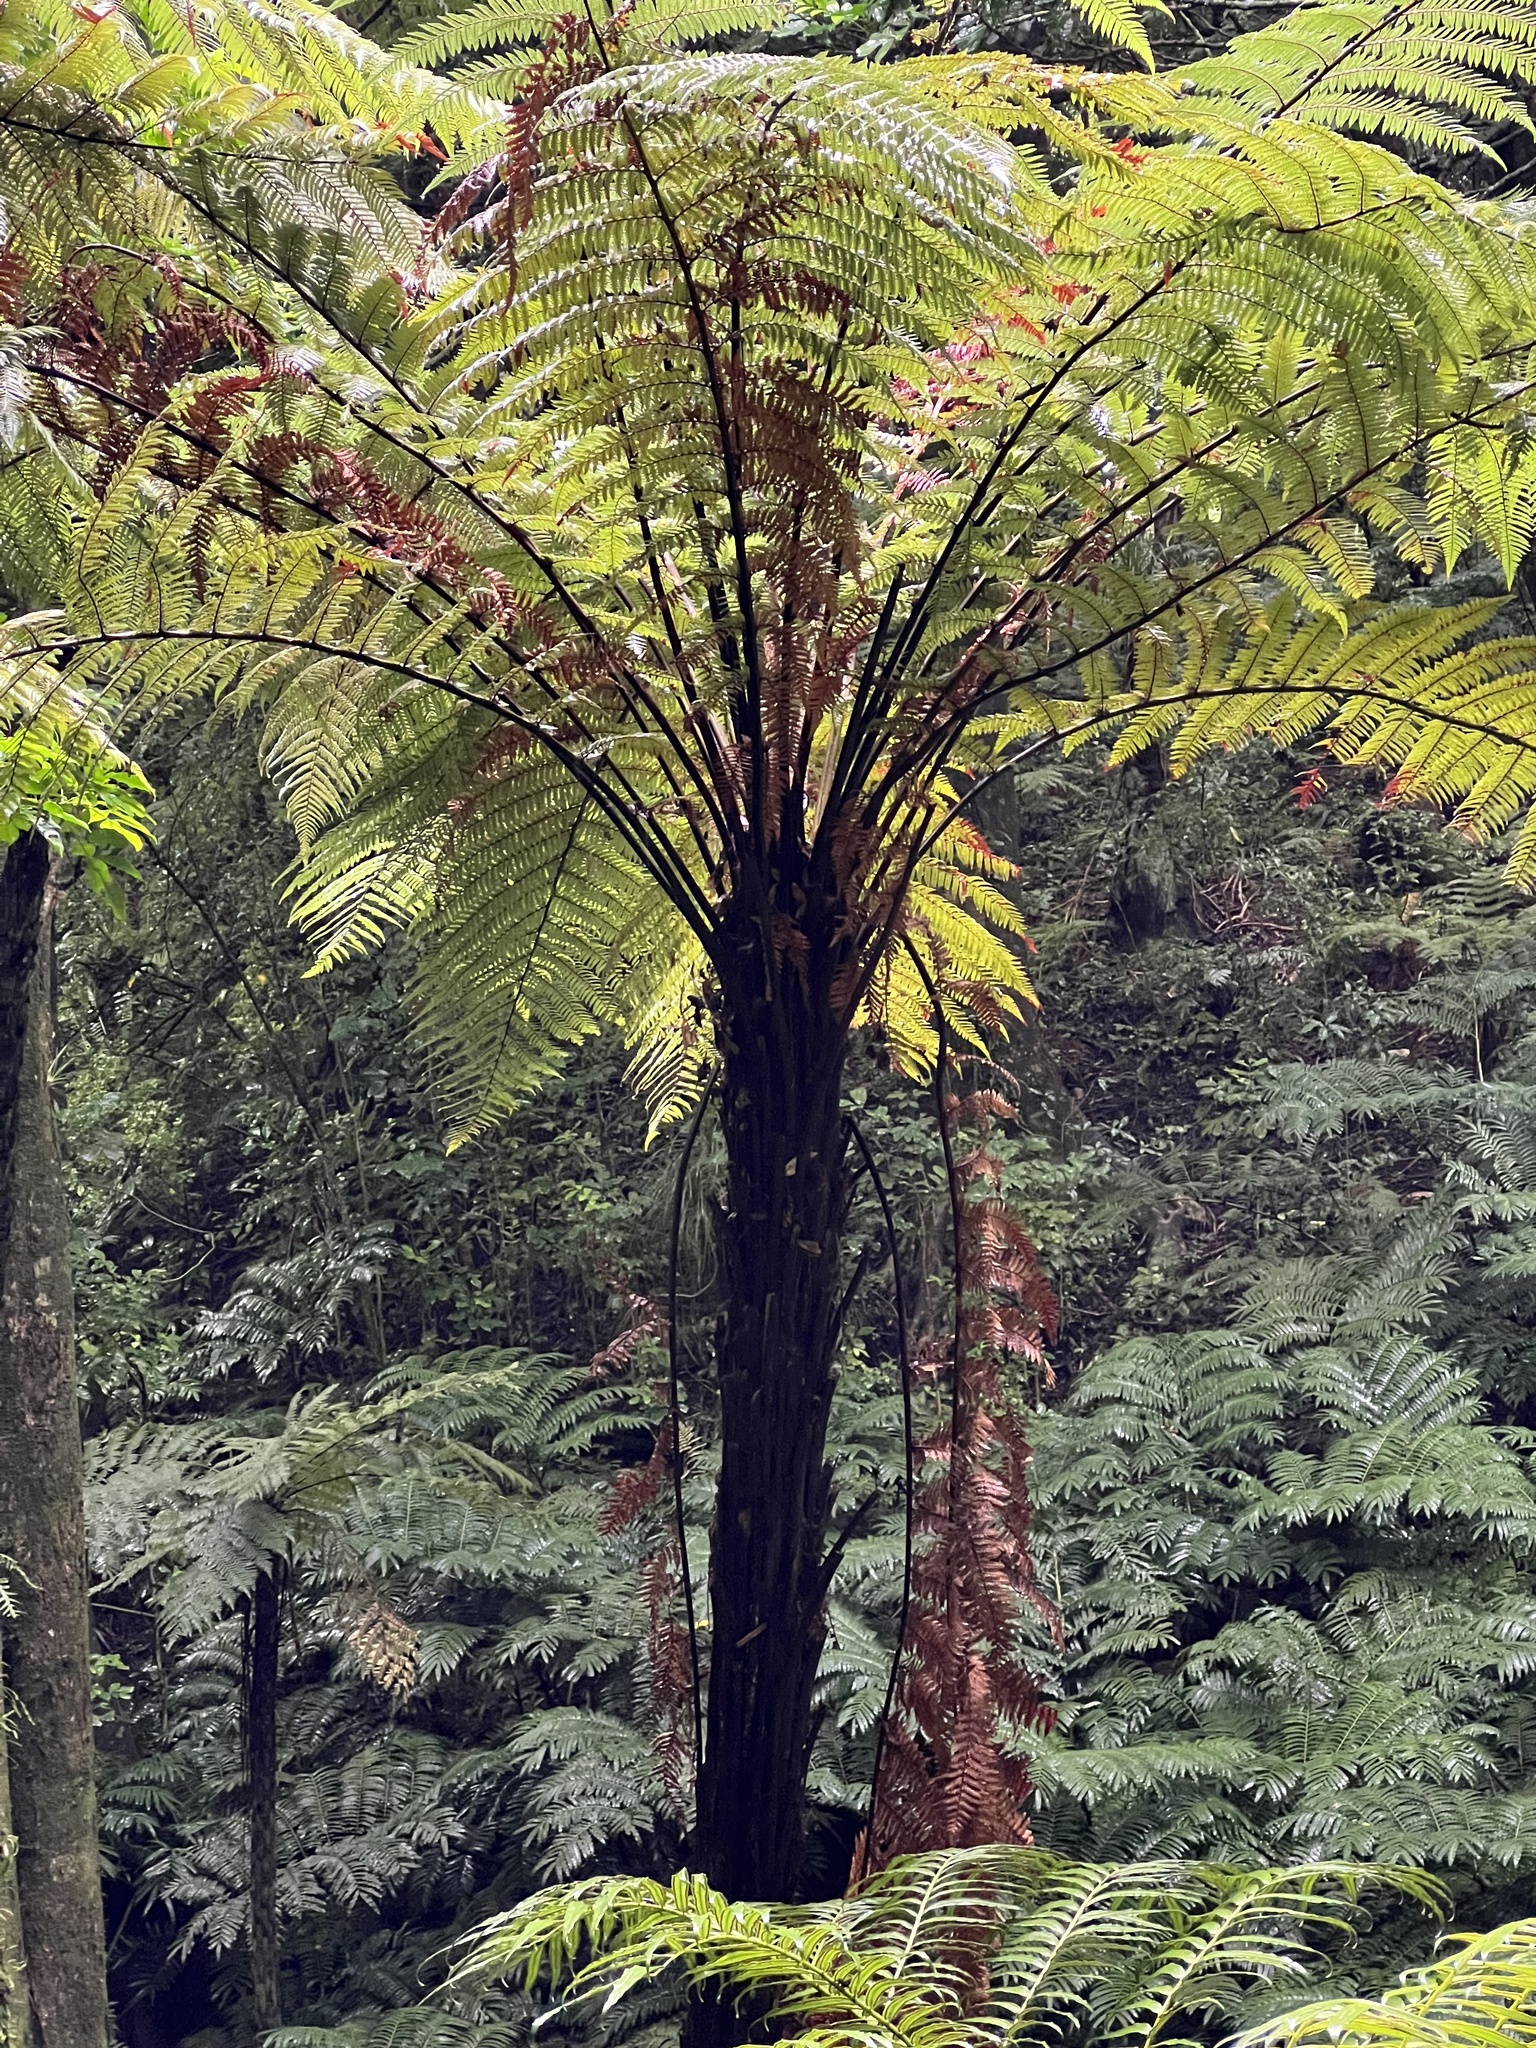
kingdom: Plantae
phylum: Tracheophyta
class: Polypodiopsida
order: Cyatheales
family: Dicksoniaceae
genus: Dicksonia
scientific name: Dicksonia squarrosa
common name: Hard treefern
